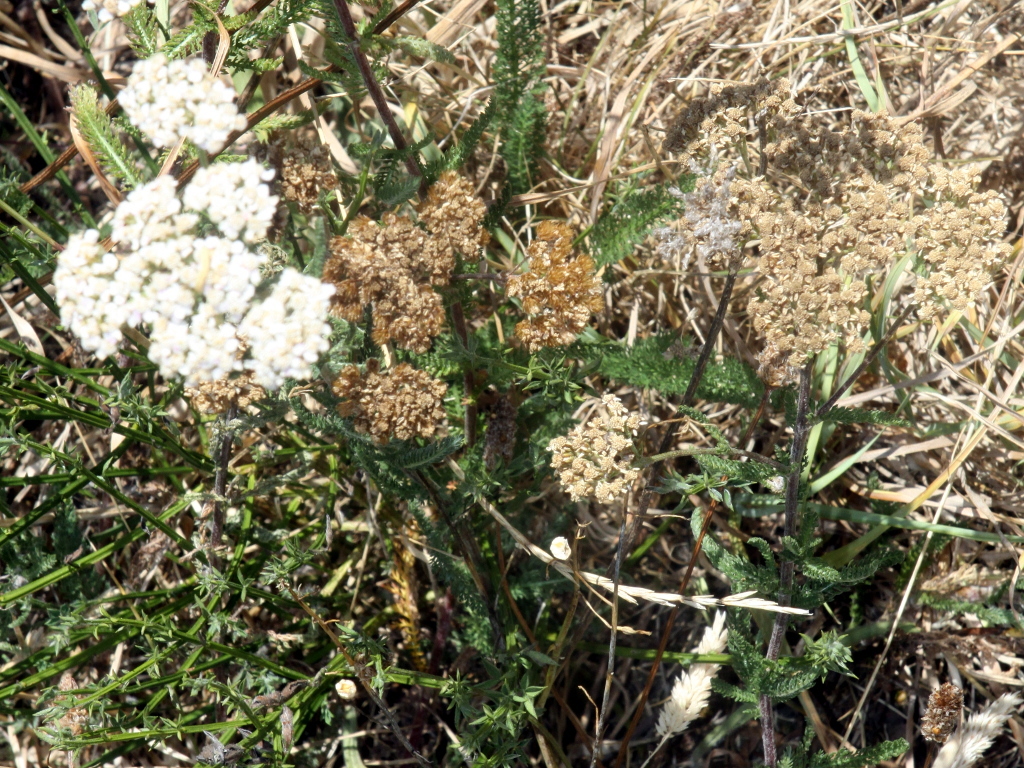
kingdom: Plantae
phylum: Tracheophyta
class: Magnoliopsida
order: Asterales
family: Asteraceae
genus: Achillea
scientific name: Achillea millefolium
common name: Yarrow
